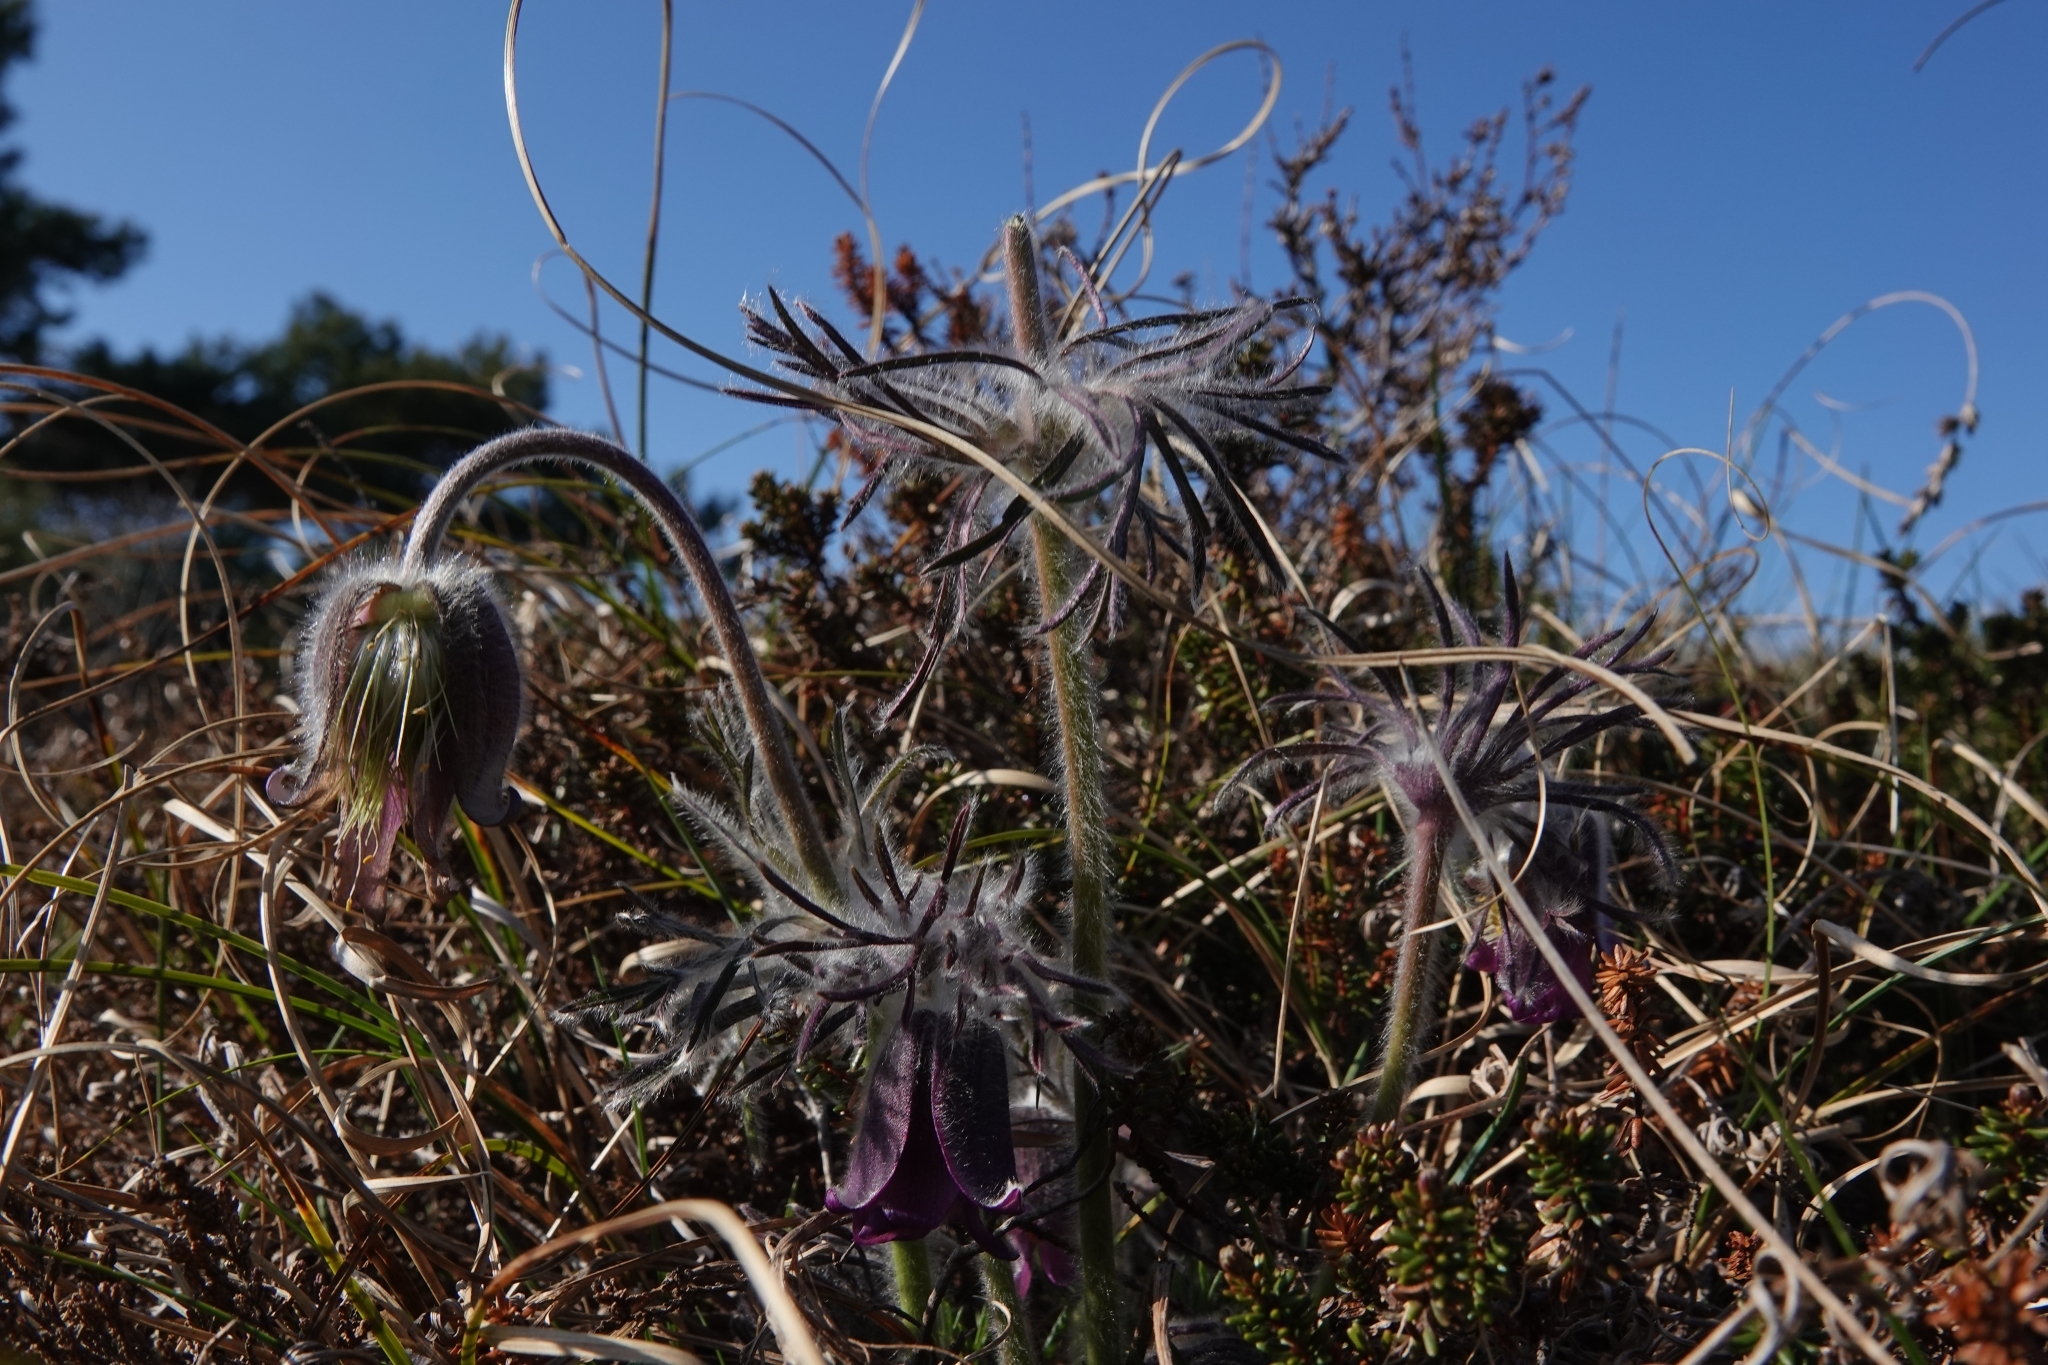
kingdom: Plantae
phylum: Tracheophyta
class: Magnoliopsida
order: Ranunculales
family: Ranunculaceae
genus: Pulsatilla
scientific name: Pulsatilla pratensis
